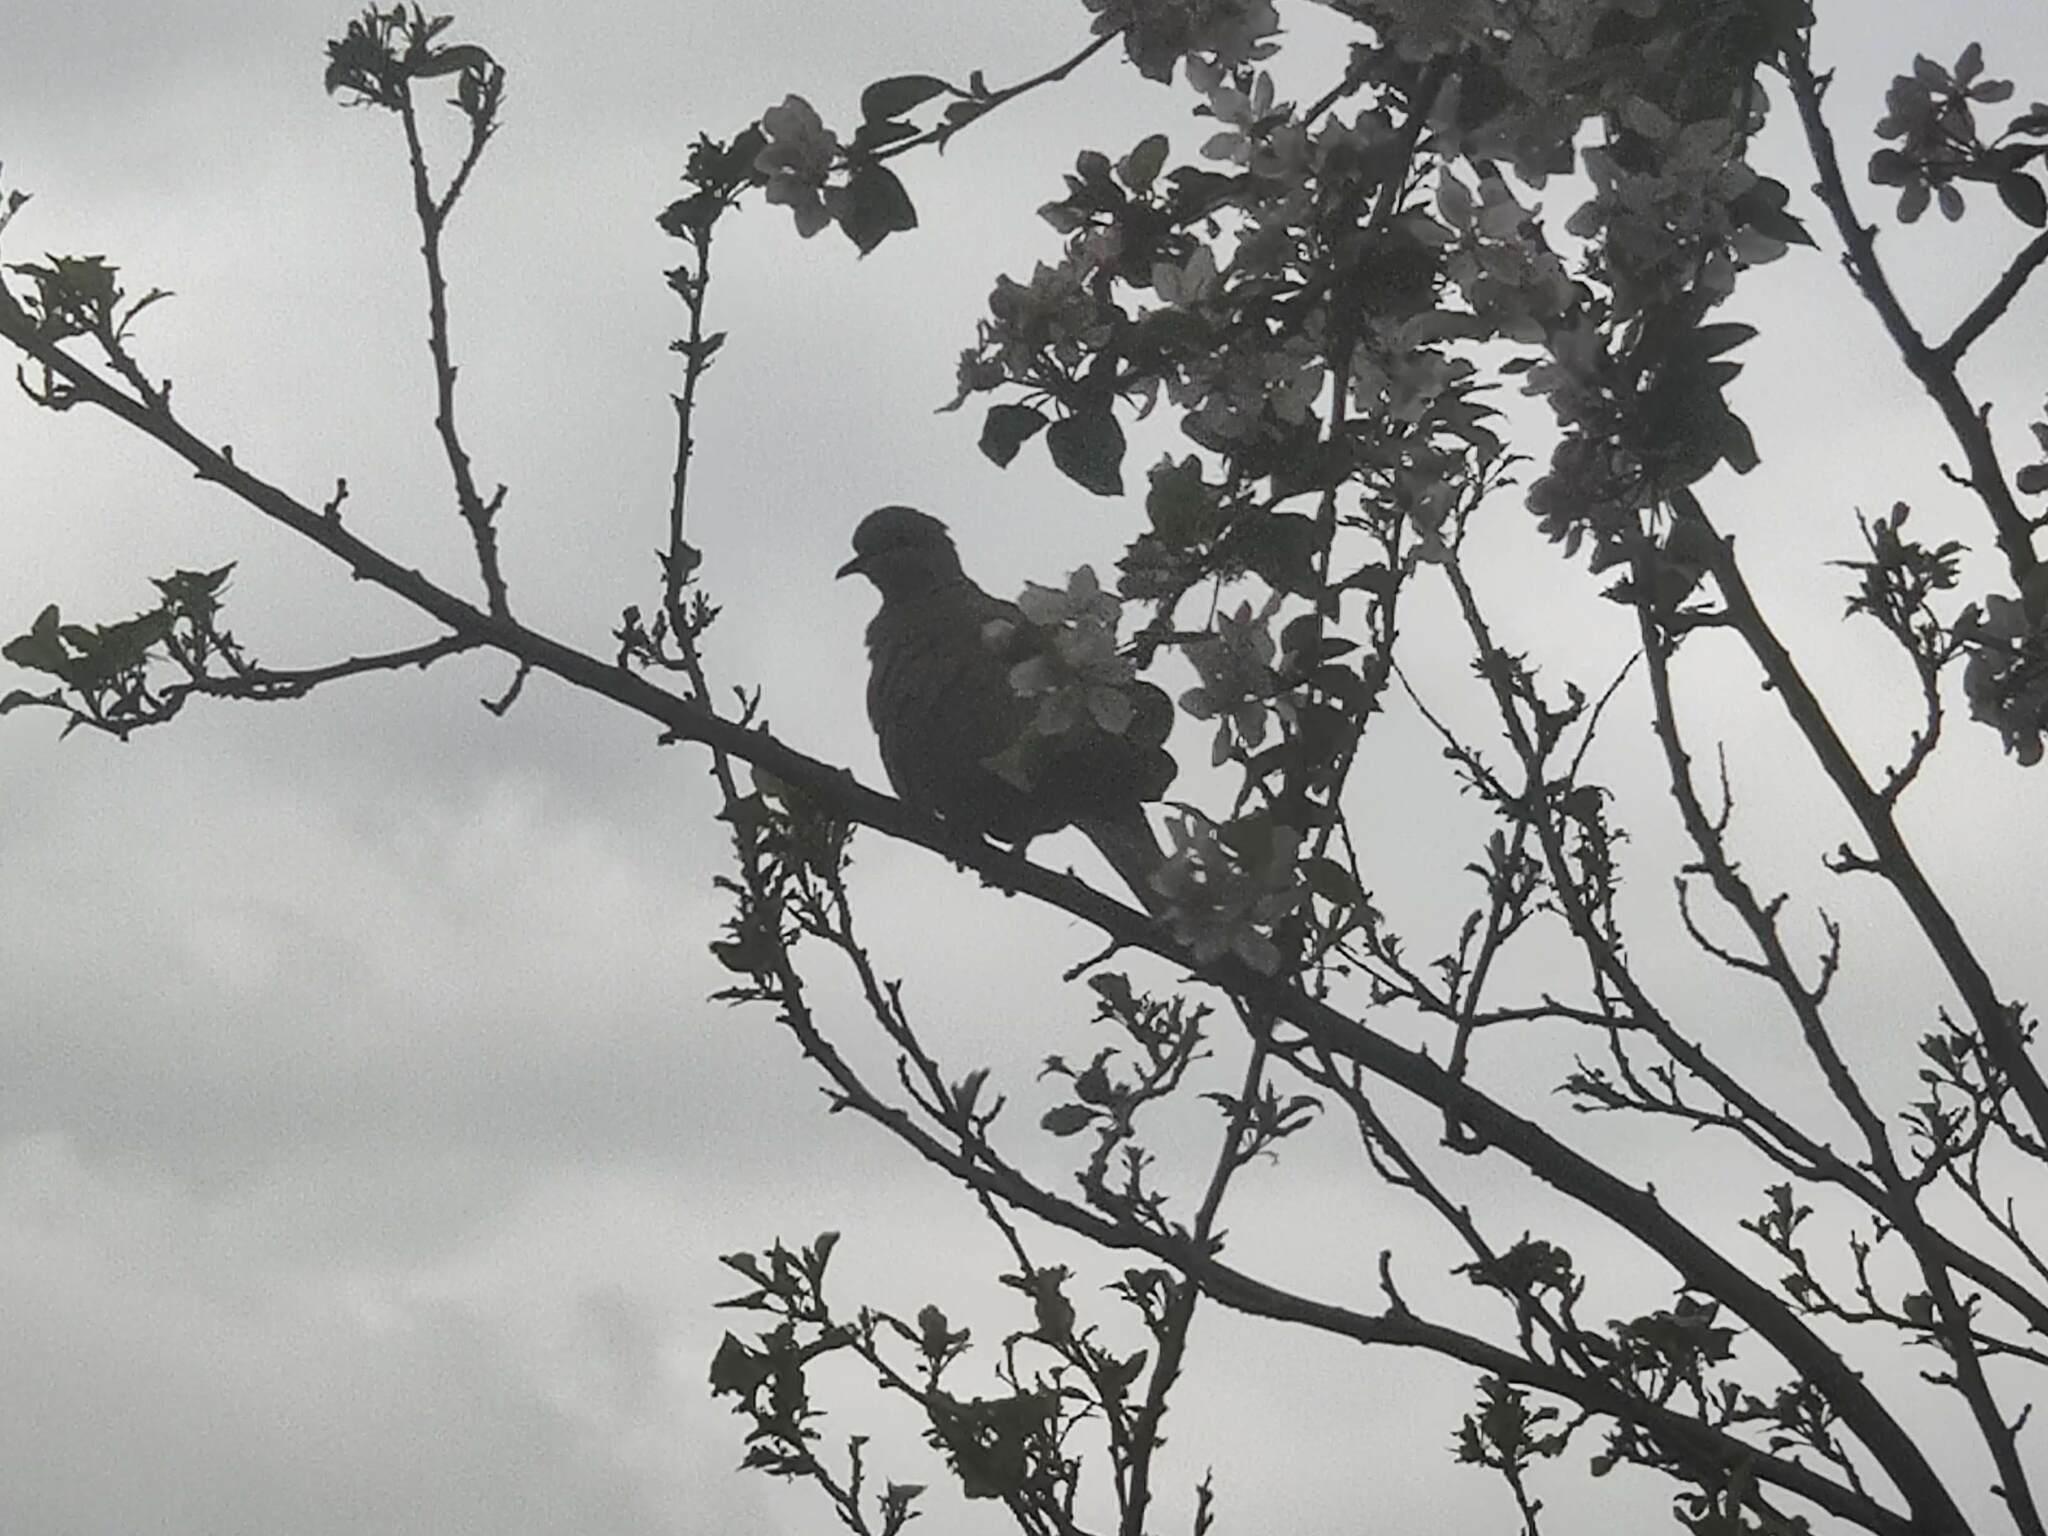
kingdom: Animalia
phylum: Chordata
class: Aves
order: Columbiformes
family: Columbidae
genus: Streptopelia
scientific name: Streptopelia decaocto
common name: Eurasian collared dove
